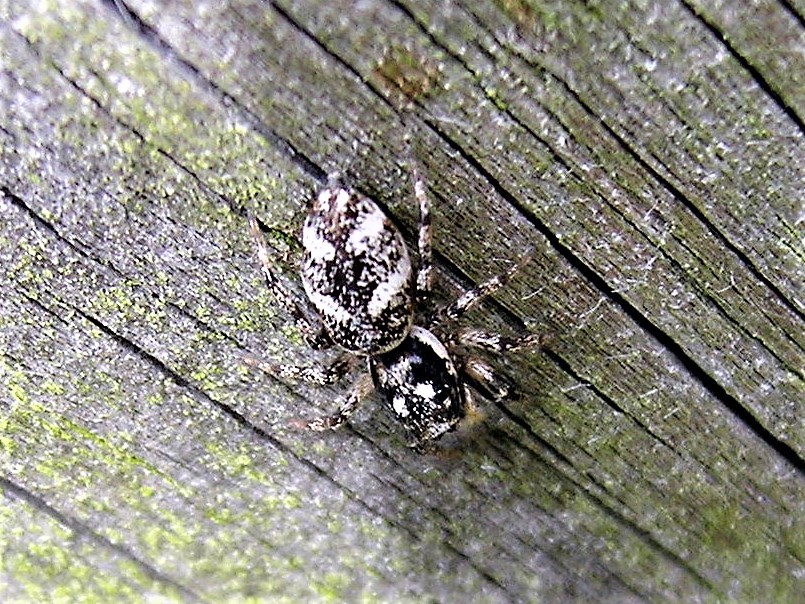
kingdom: Animalia
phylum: Arthropoda
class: Arachnida
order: Araneae
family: Salticidae
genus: Salticus
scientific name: Salticus scenicus
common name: Zebra jumper
